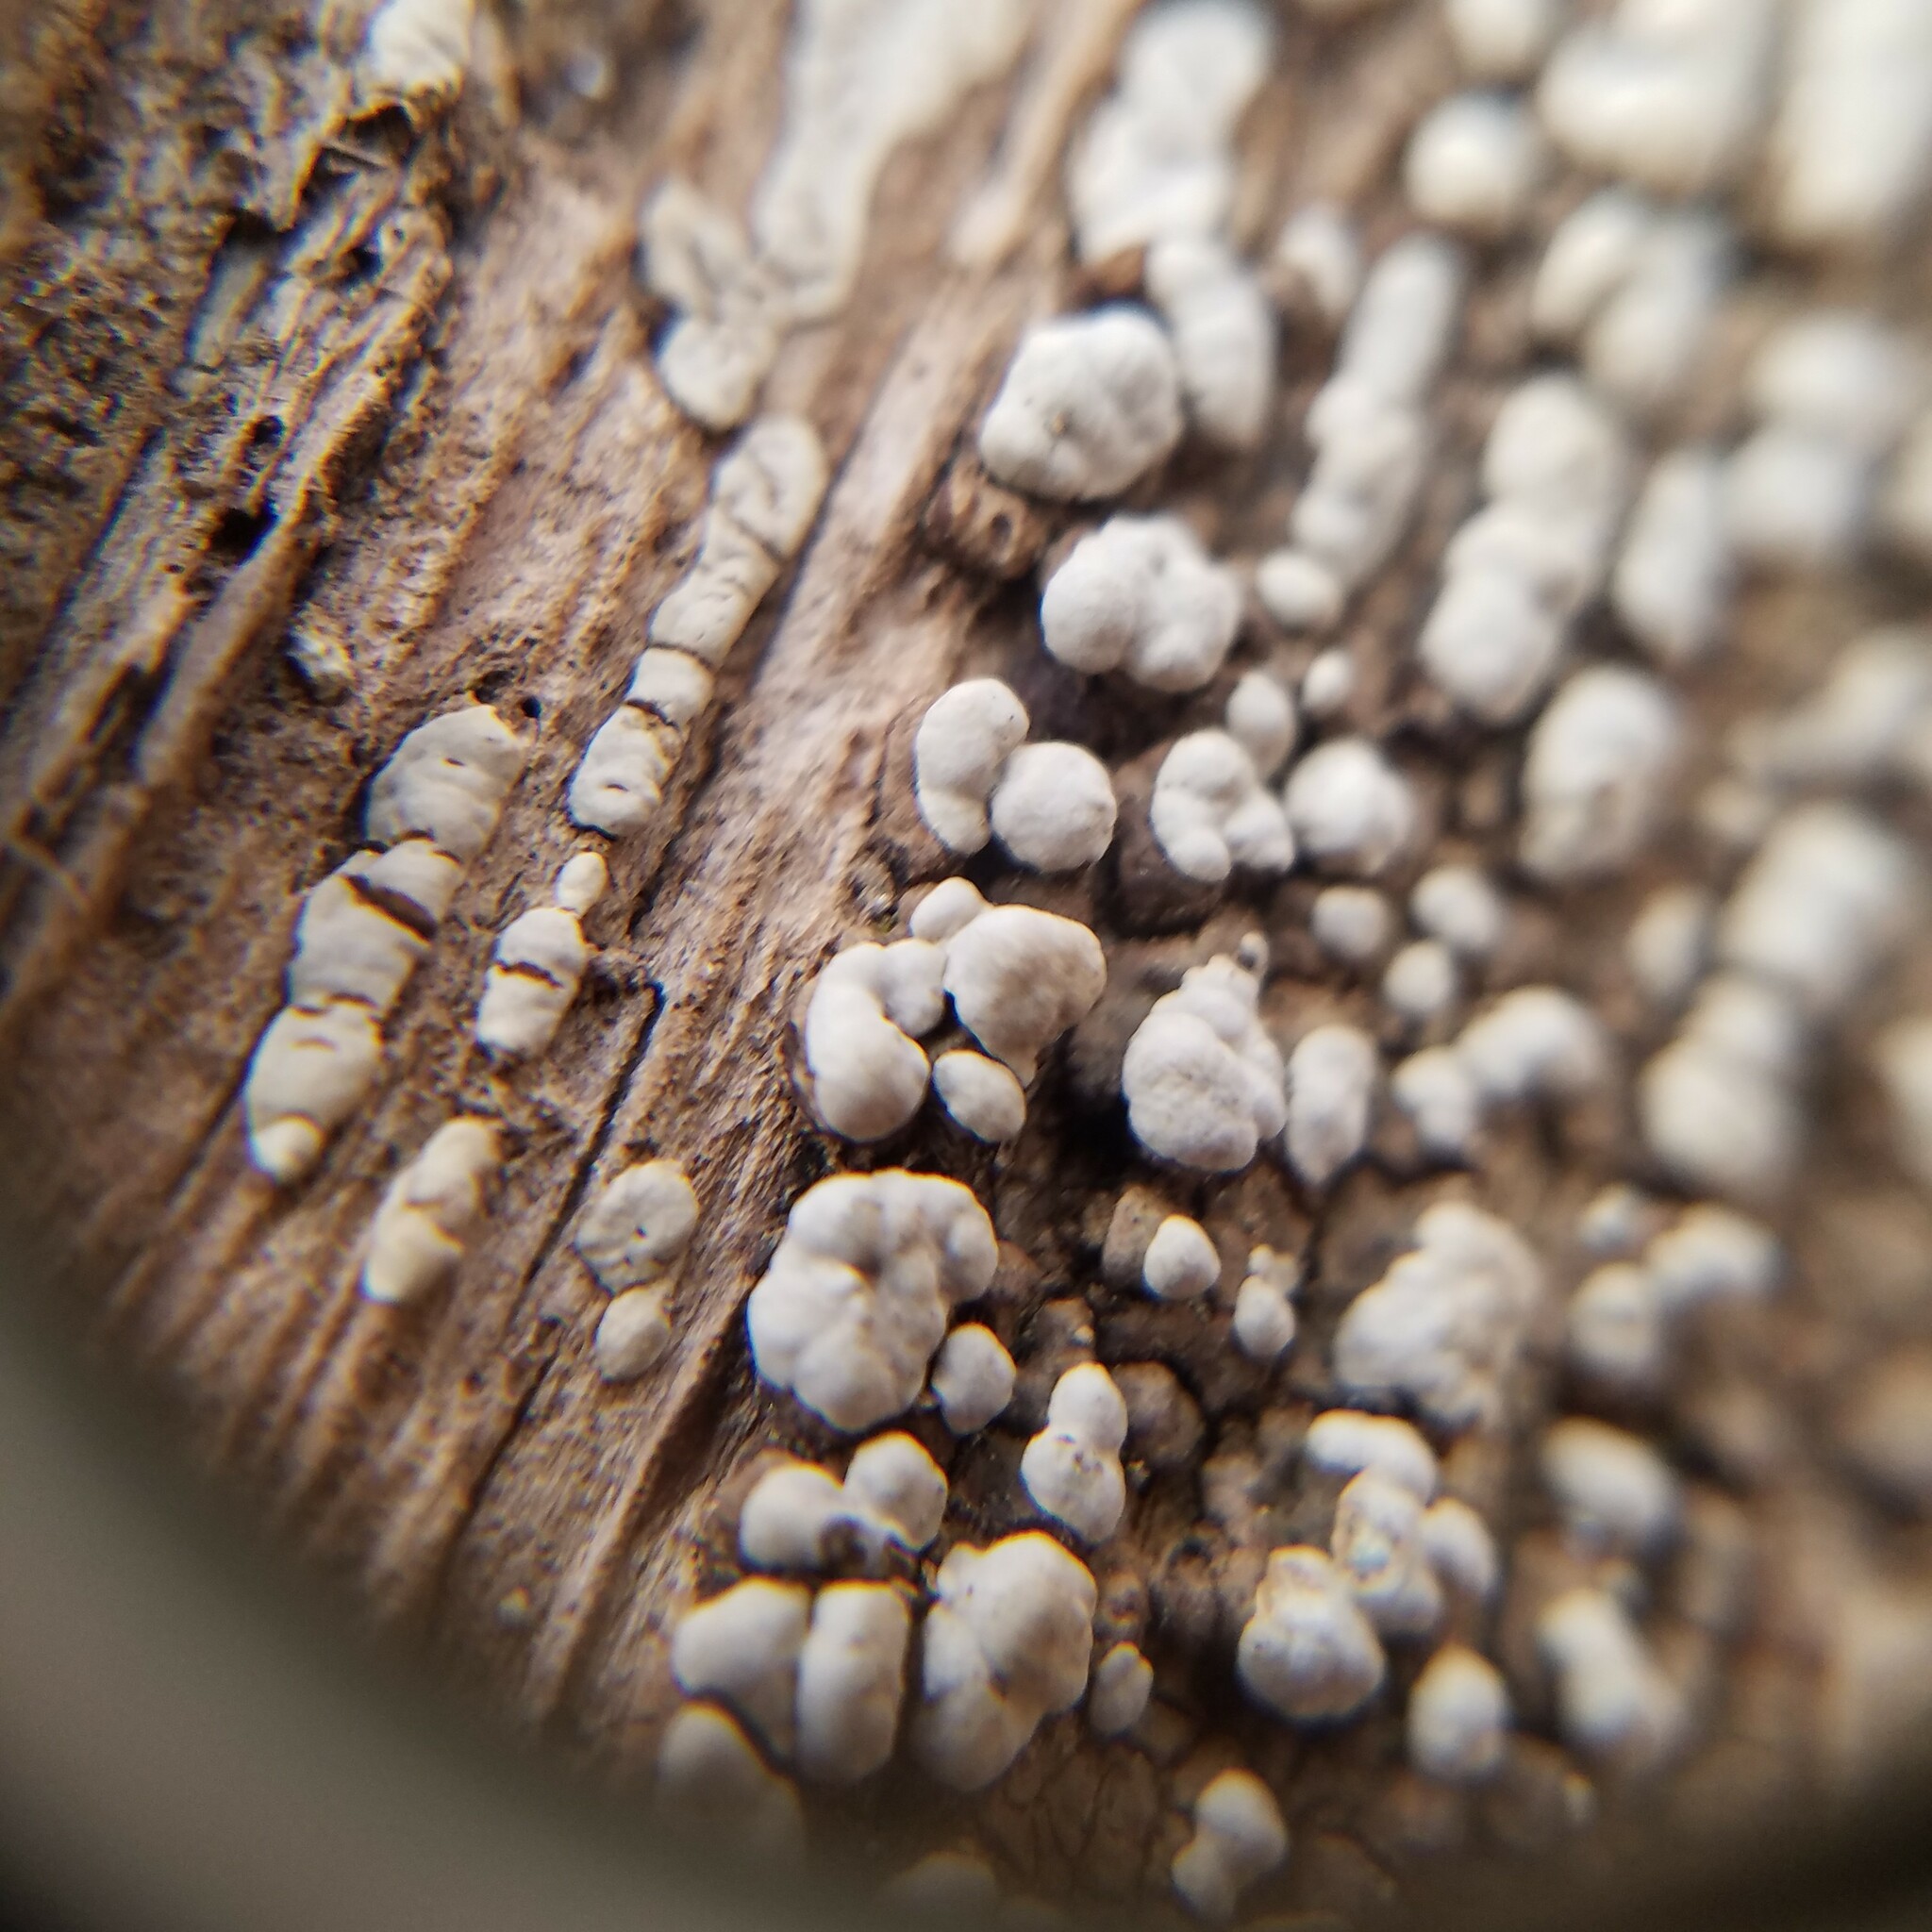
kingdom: Fungi
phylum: Basidiomycota
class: Agaricomycetes
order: Russulales
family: Stereaceae
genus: Xylobolus
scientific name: Xylobolus frustulatus
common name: Ceramic parchment
